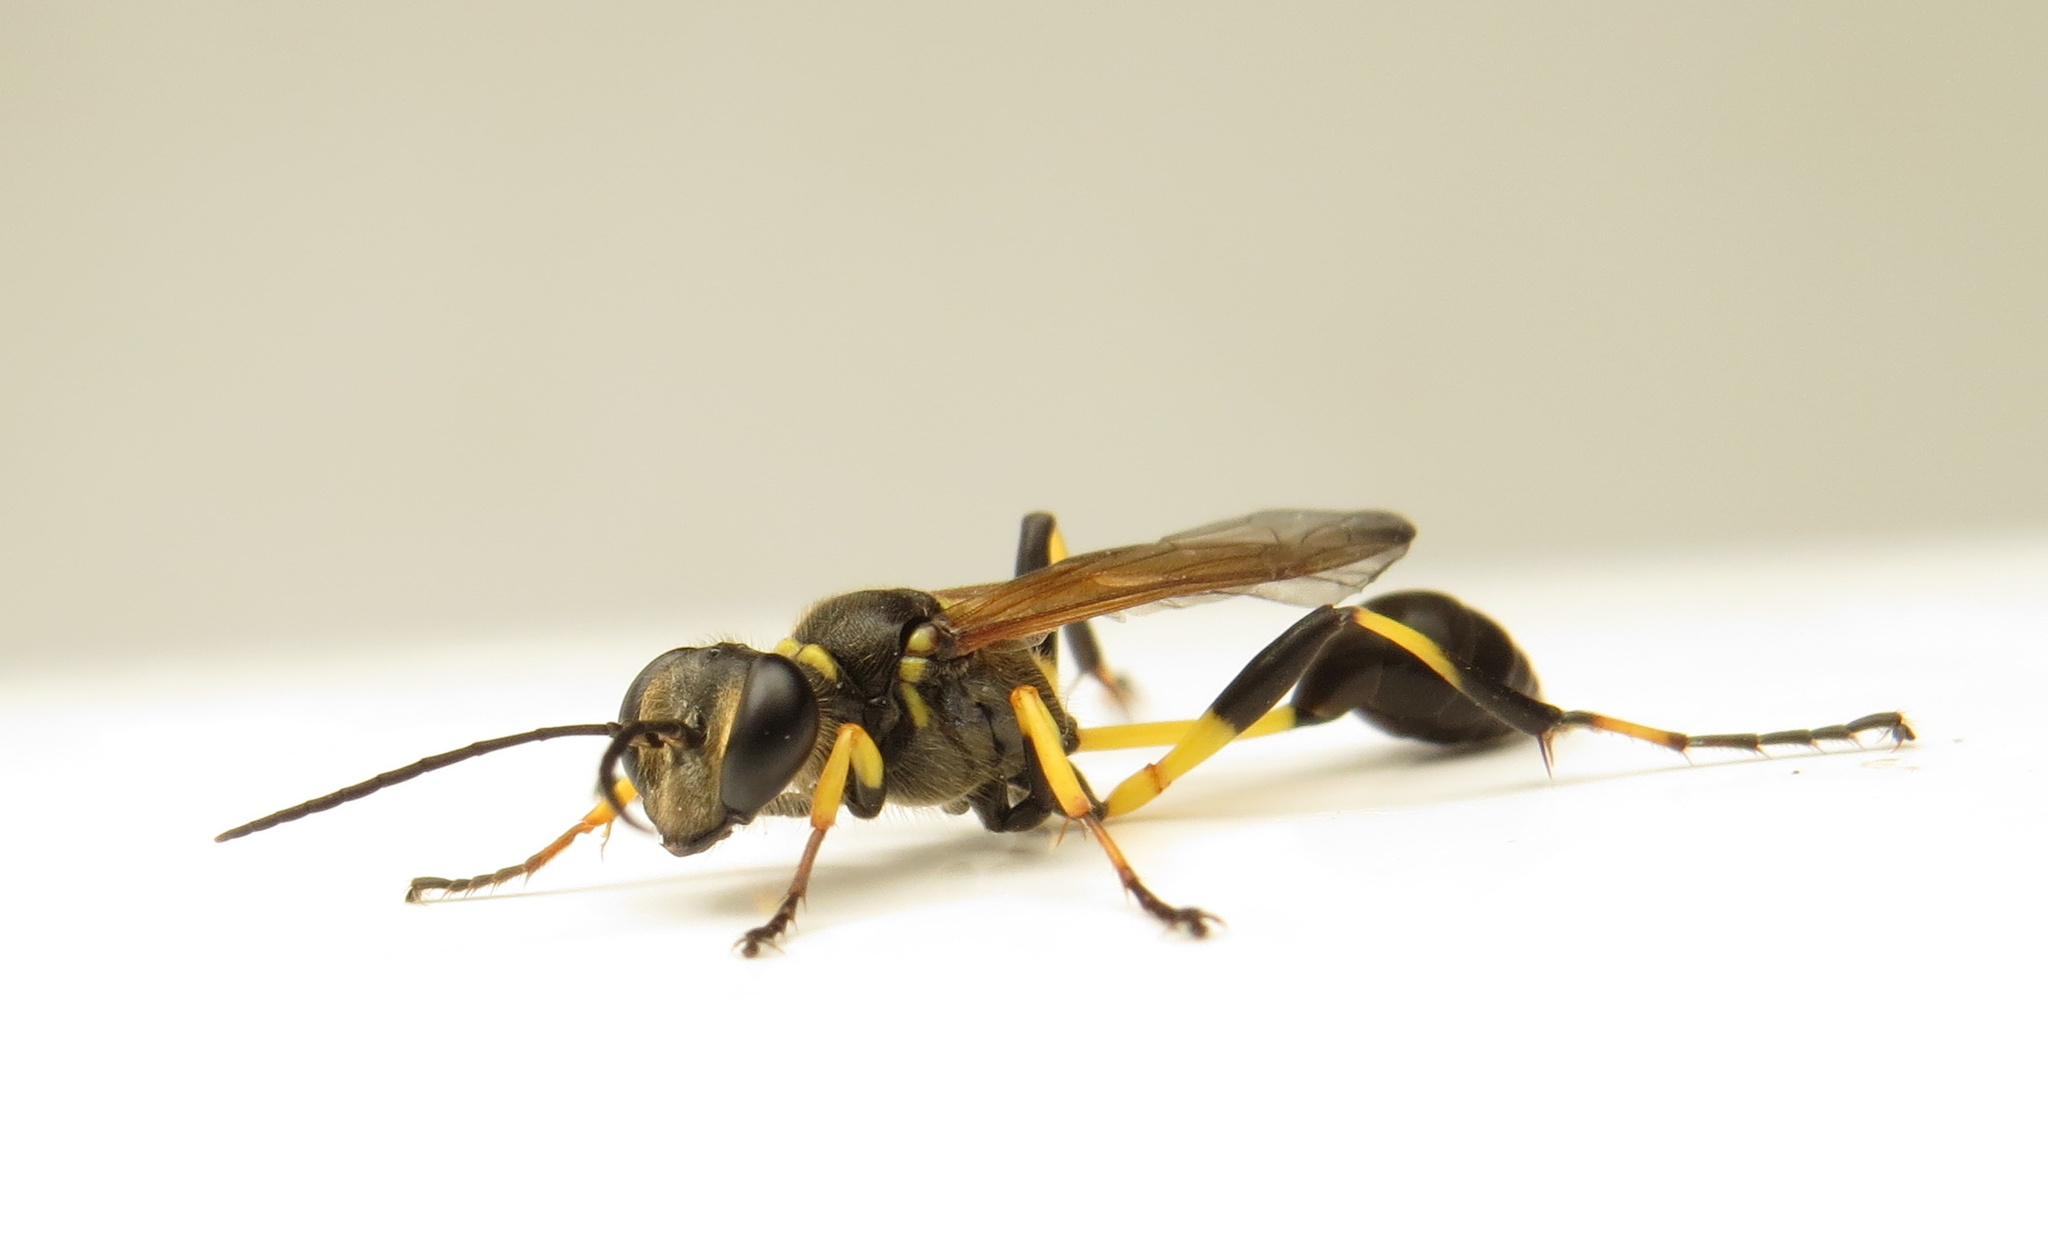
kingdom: Animalia
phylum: Arthropoda
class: Insecta
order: Hymenoptera
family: Sphecidae
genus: Sceliphron
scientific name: Sceliphron madraspatanum
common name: Mud dauber
